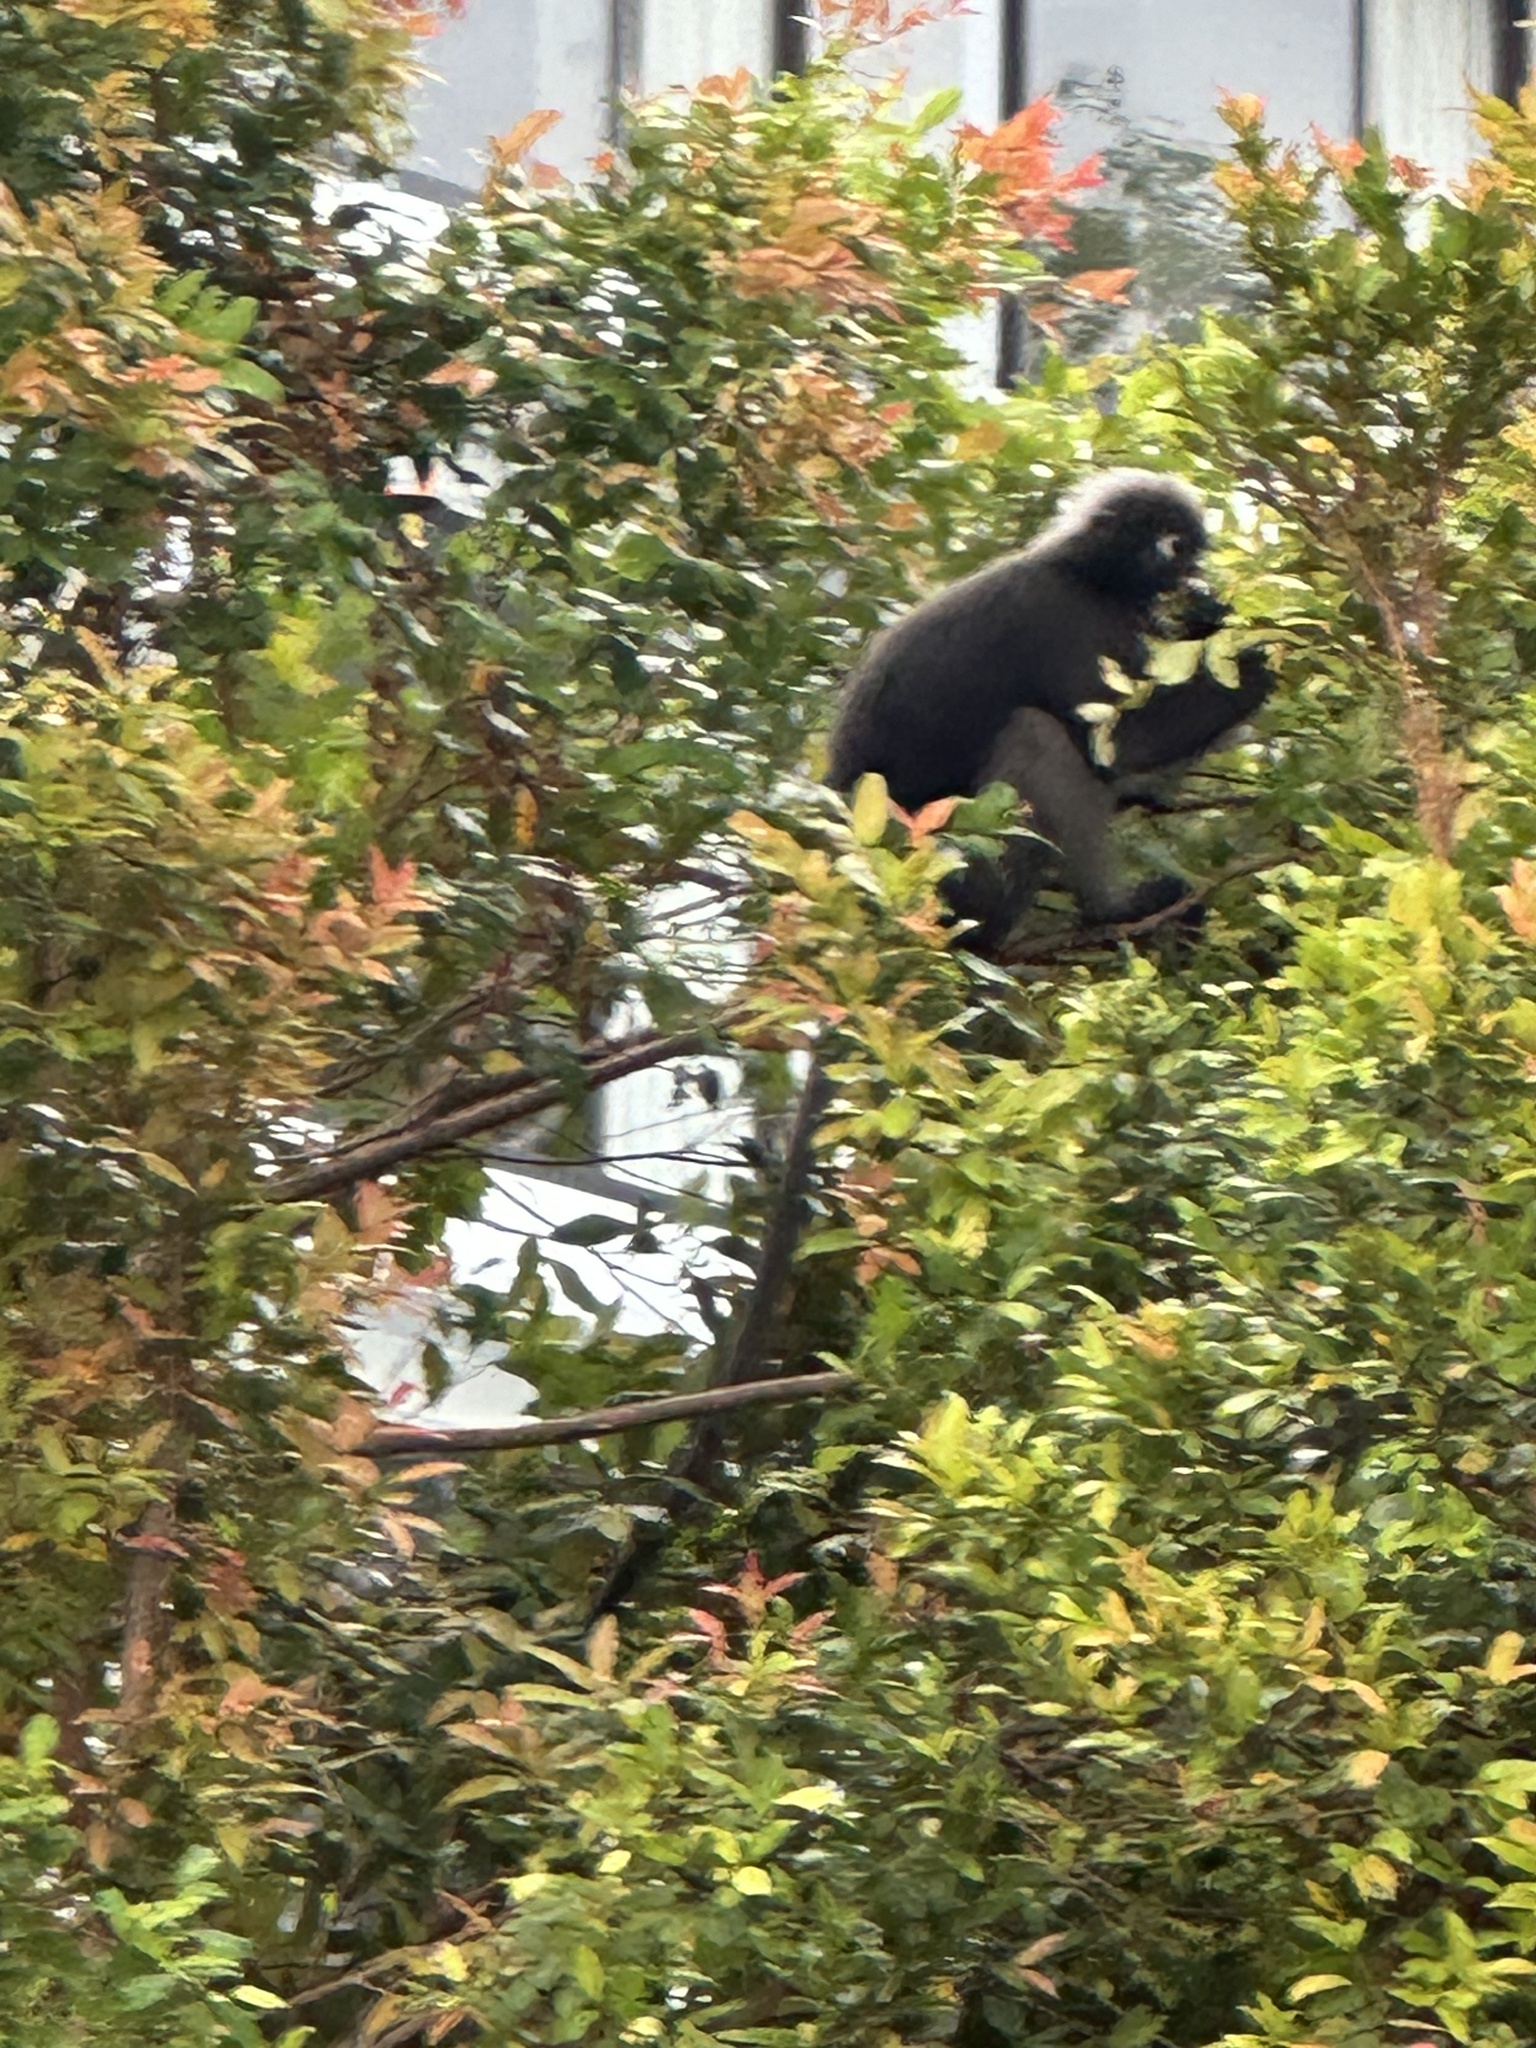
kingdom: Animalia
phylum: Chordata
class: Mammalia
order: Primates
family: Cercopithecidae
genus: Trachypithecus
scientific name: Trachypithecus obscurus
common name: Dusky leaf-monkey
